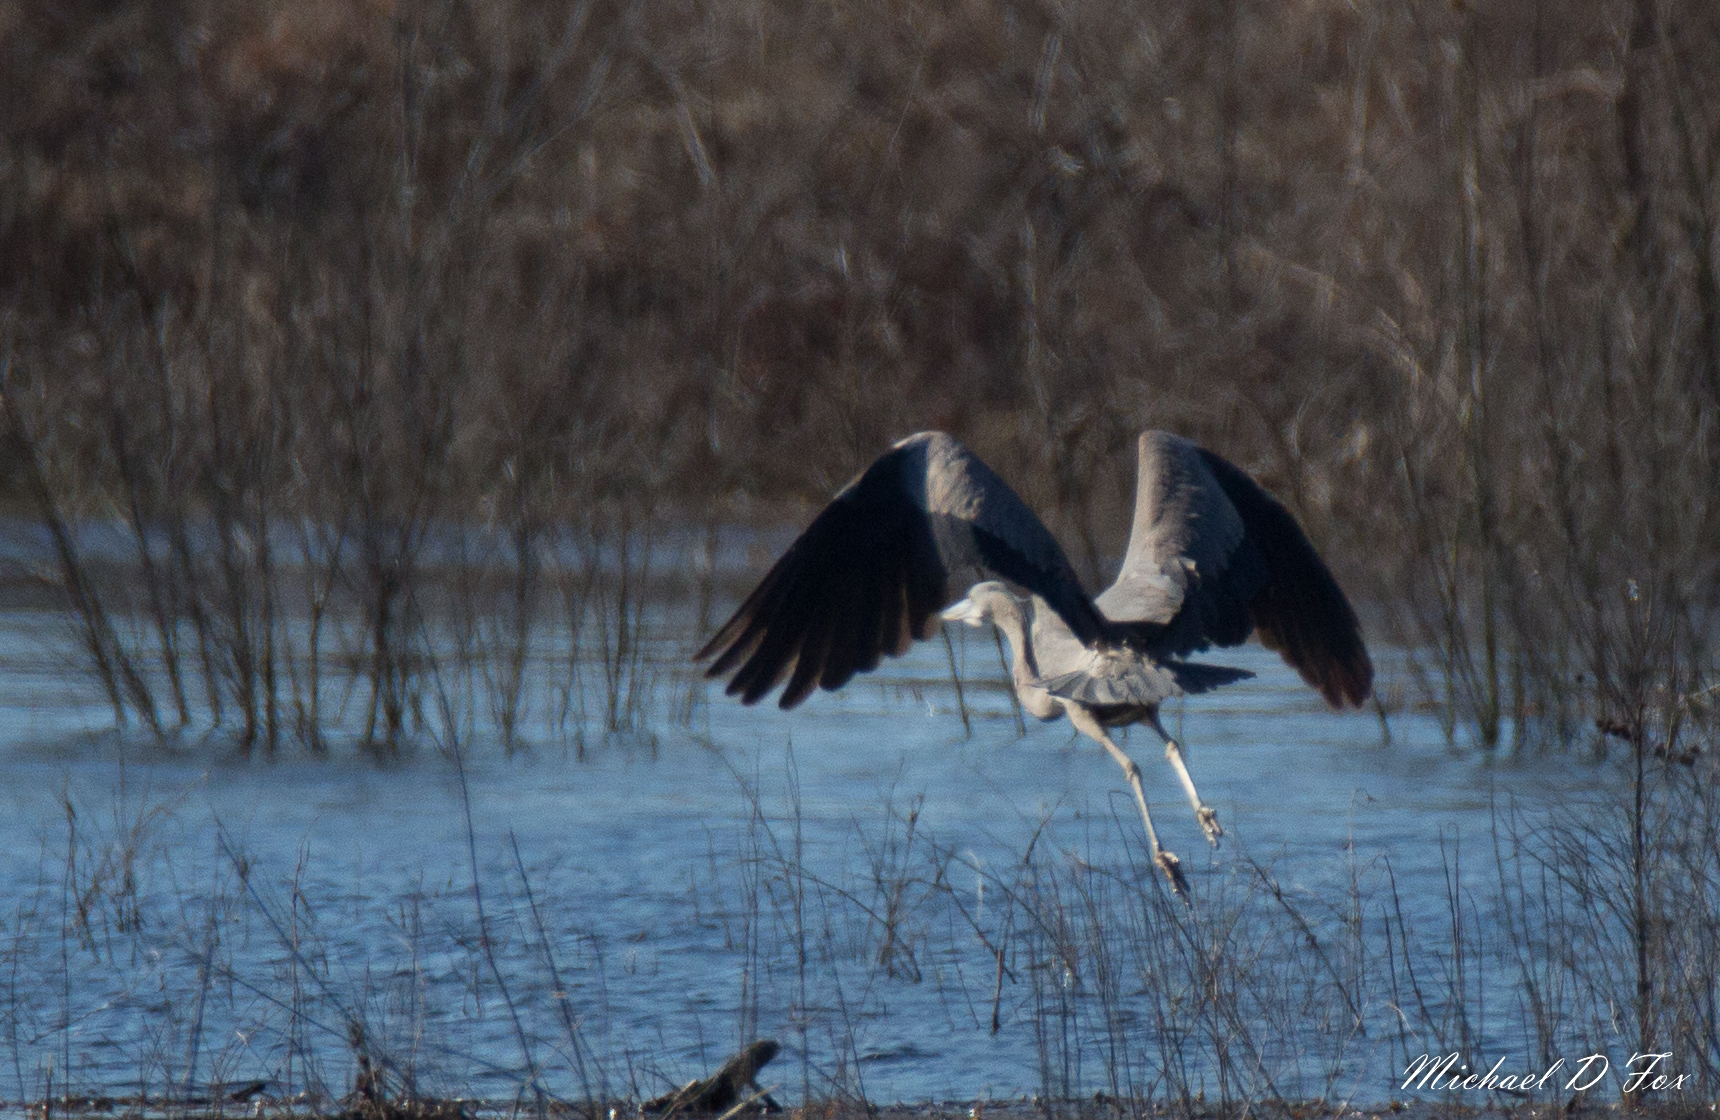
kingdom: Animalia
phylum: Chordata
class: Aves
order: Pelecaniformes
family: Ardeidae
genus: Ardea
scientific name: Ardea herodias
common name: Great blue heron
